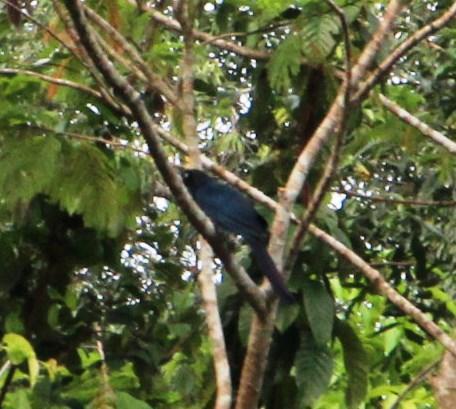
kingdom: Animalia
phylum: Chordata
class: Aves
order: Cuculiformes
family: Cuculidae
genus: Crotophaga
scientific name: Crotophaga major
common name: Greater ani
